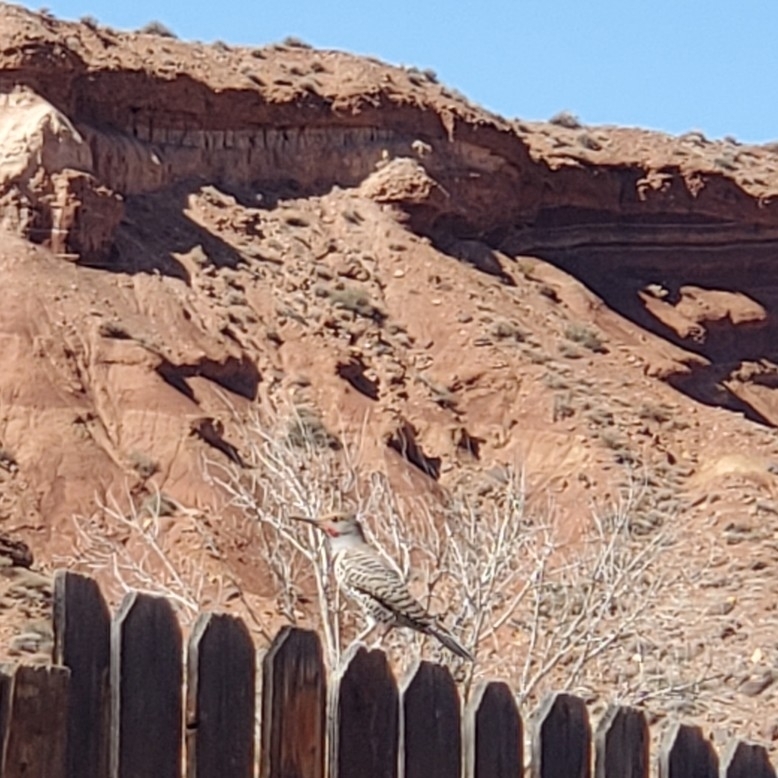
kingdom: Animalia
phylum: Chordata
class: Aves
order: Piciformes
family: Picidae
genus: Colaptes
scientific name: Colaptes auratus
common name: Northern flicker
